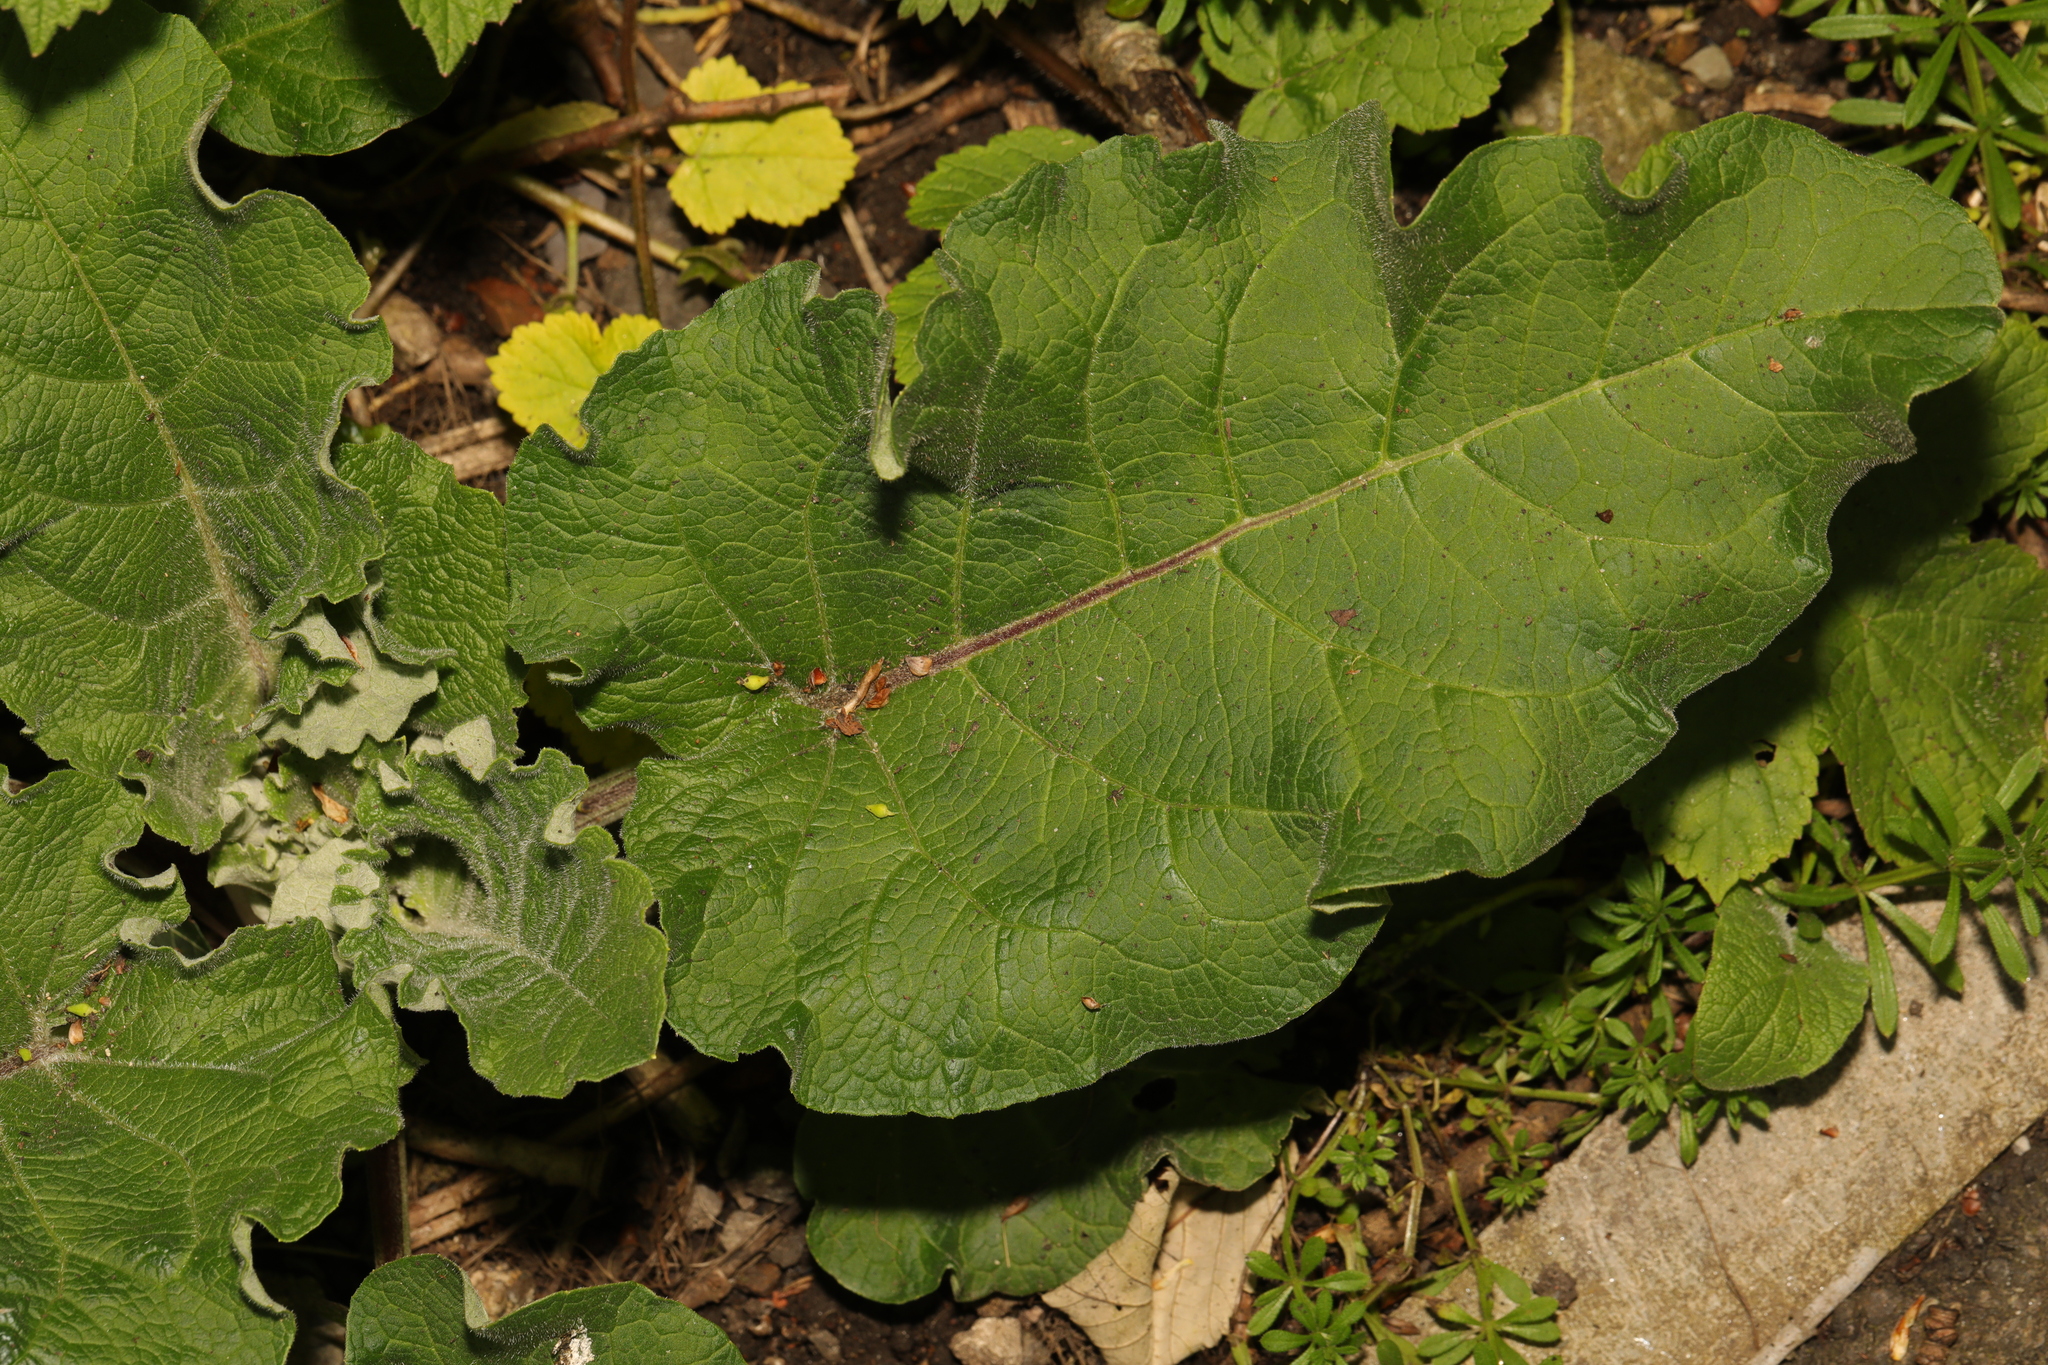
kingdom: Plantae
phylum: Tracheophyta
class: Magnoliopsida
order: Asterales
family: Asteraceae
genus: Arctium
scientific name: Arctium minus
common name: Lesser burdock
